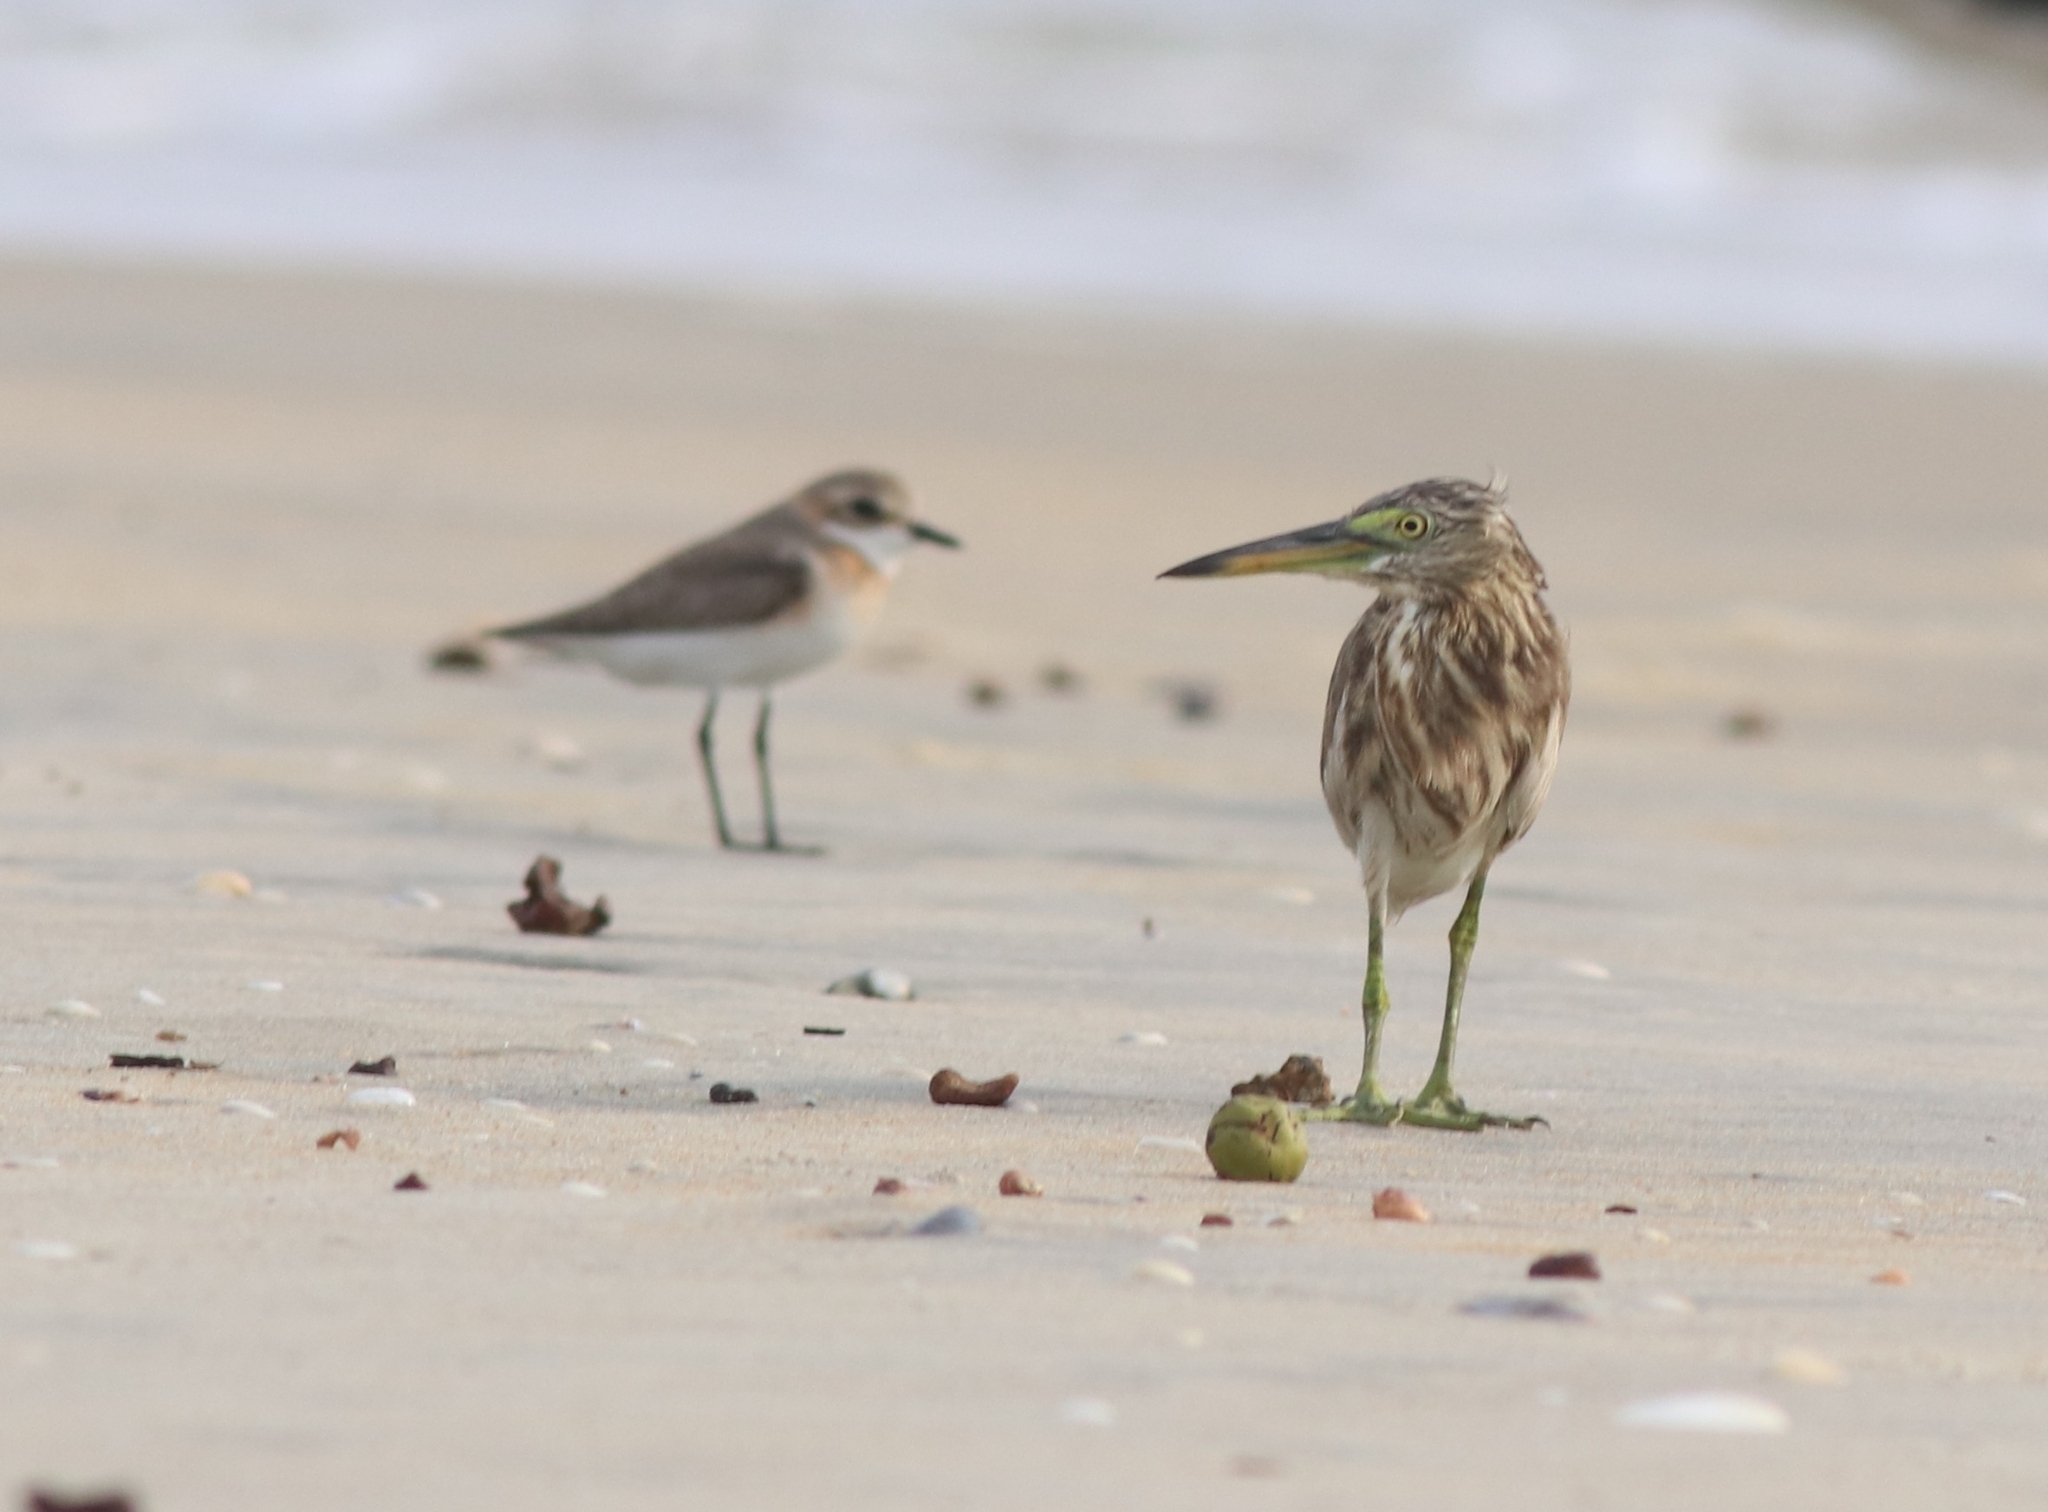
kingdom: Animalia
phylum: Chordata
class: Aves
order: Pelecaniformes
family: Ardeidae
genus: Ardeola
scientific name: Ardeola grayii
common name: Indian pond heron
